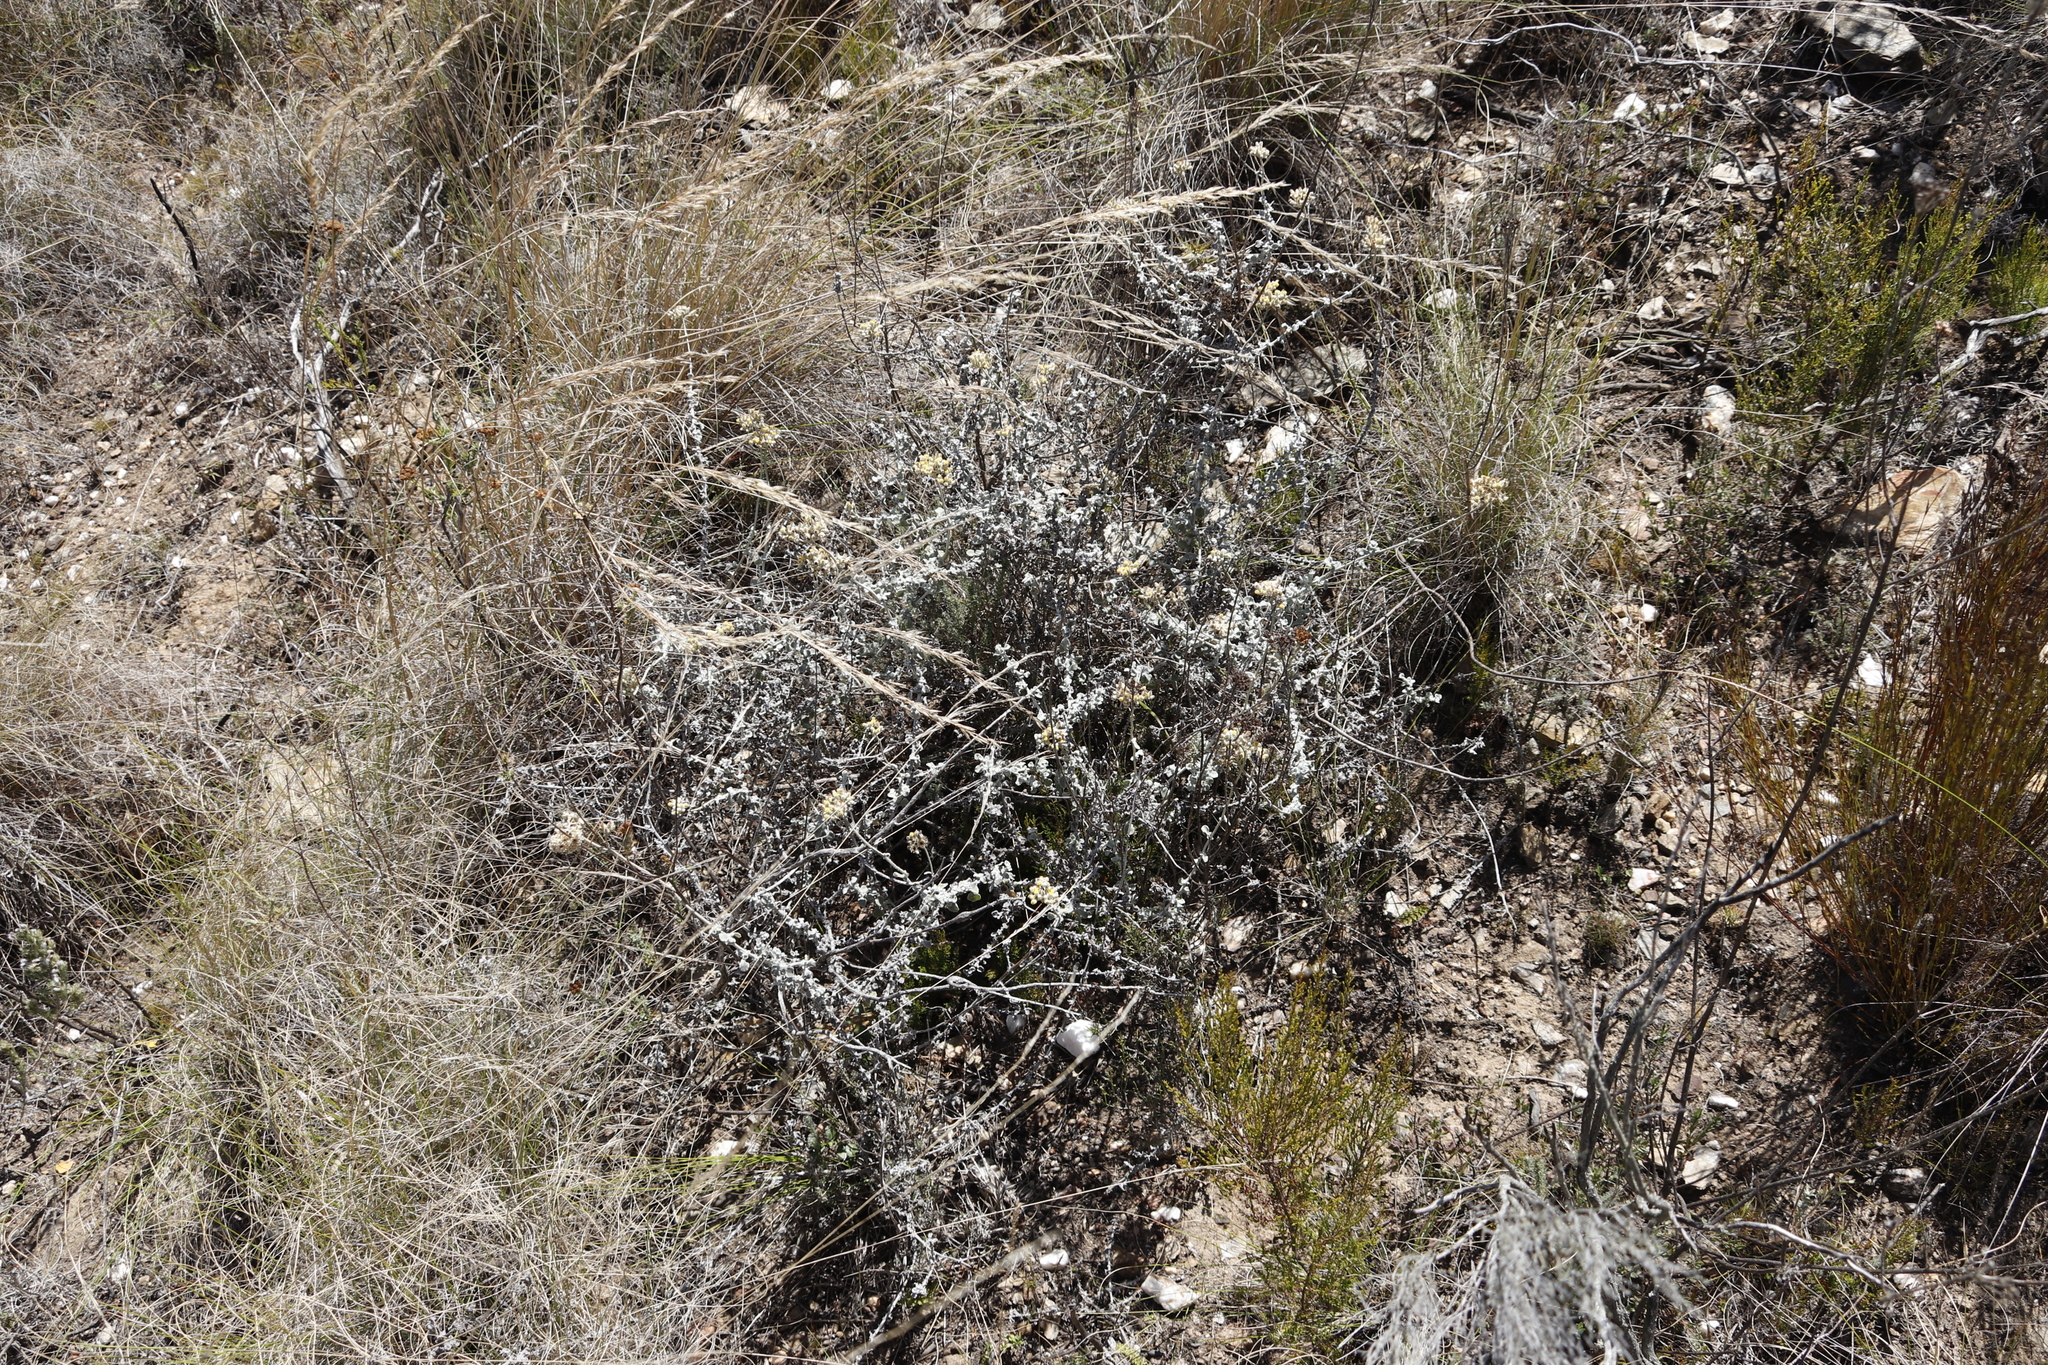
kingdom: Plantae
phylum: Tracheophyta
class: Magnoliopsida
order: Asterales
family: Asteraceae
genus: Helichrysum
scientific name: Helichrysum patulum
